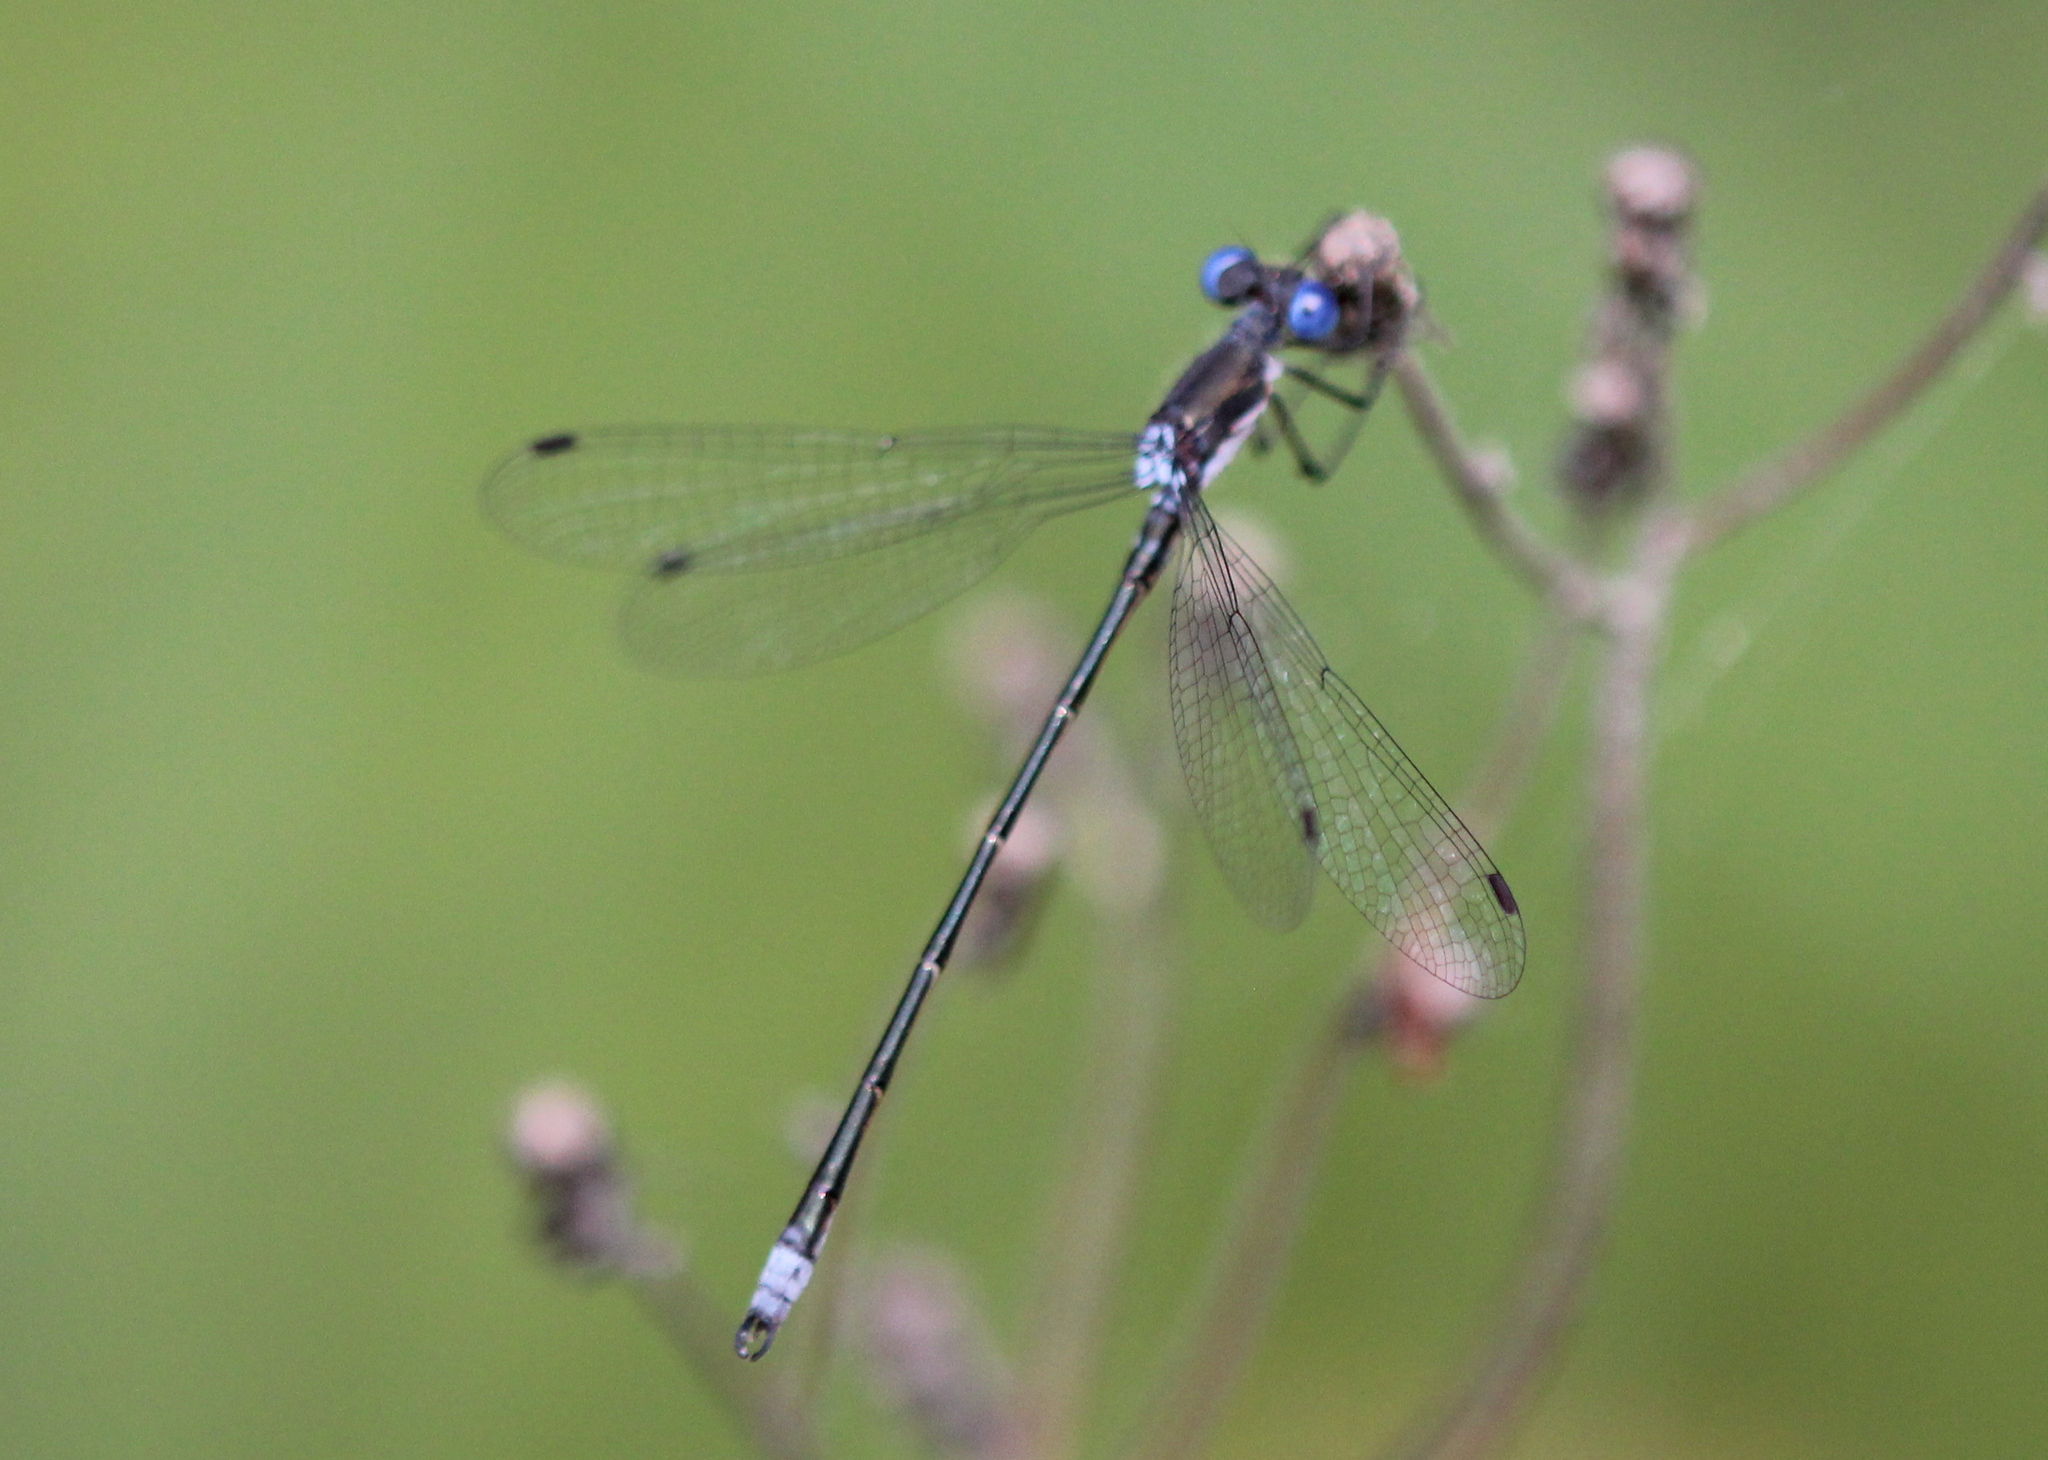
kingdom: Animalia
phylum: Arthropoda
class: Insecta
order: Odonata
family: Lestidae
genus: Lestes
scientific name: Lestes congener
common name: Spotted spreadwing
